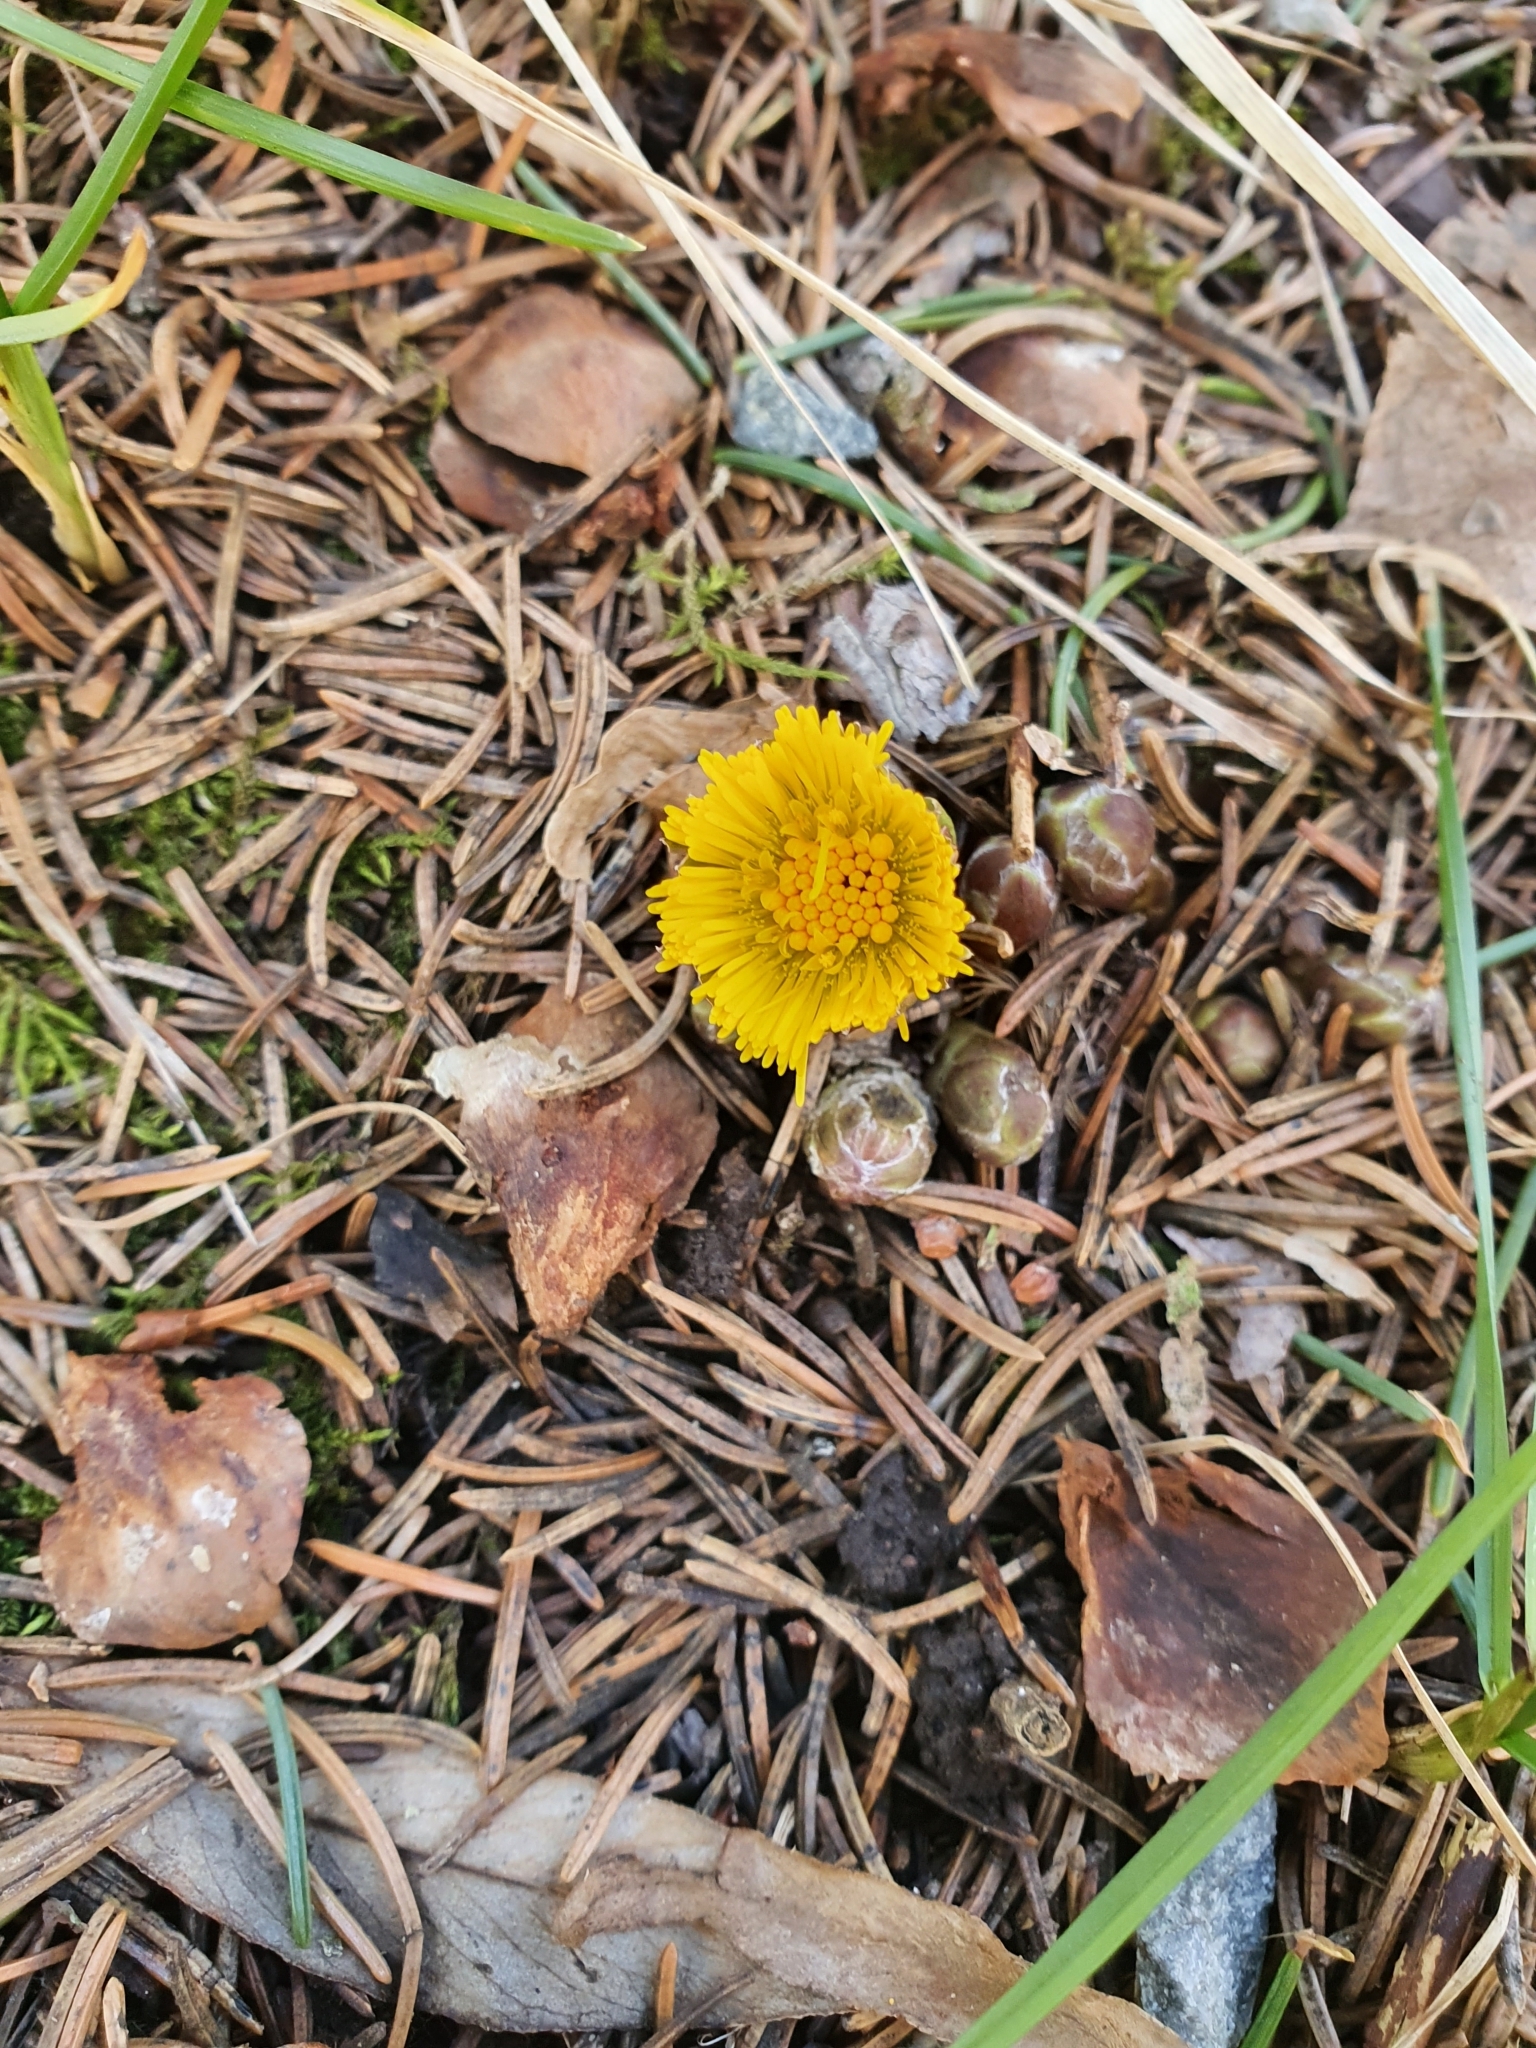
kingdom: Plantae
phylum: Tracheophyta
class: Magnoliopsida
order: Asterales
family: Asteraceae
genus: Tussilago
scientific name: Tussilago farfara
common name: Coltsfoot
